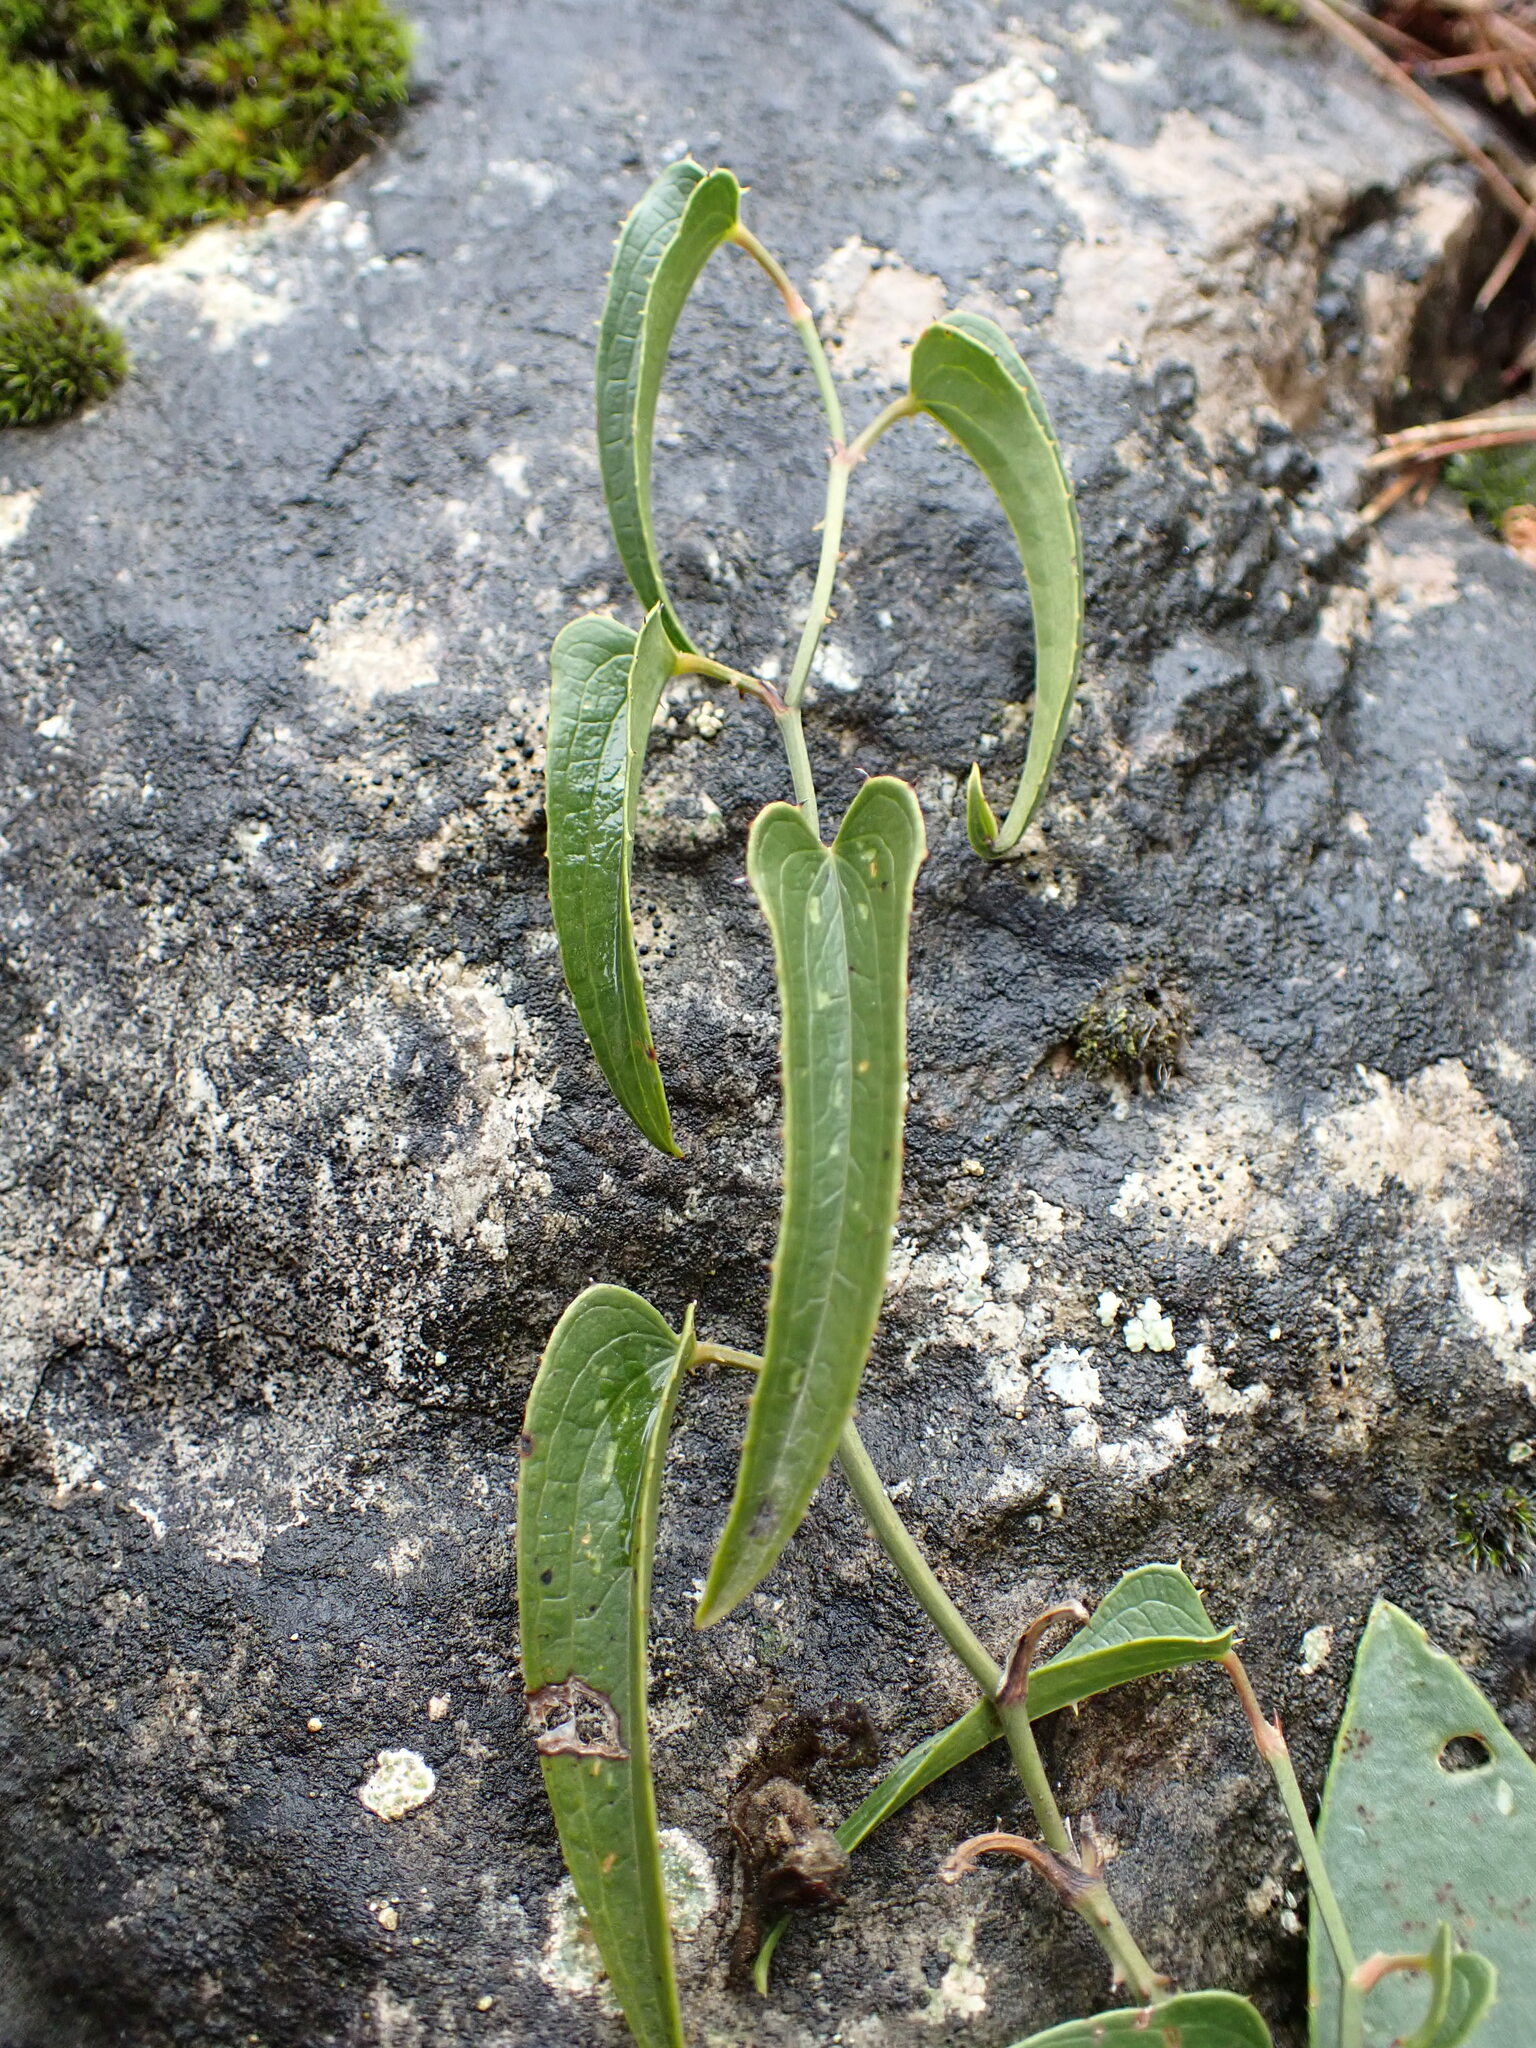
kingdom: Plantae
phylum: Tracheophyta
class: Liliopsida
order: Liliales
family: Smilacaceae
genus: Smilax
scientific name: Smilax aspera
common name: Common smilax
